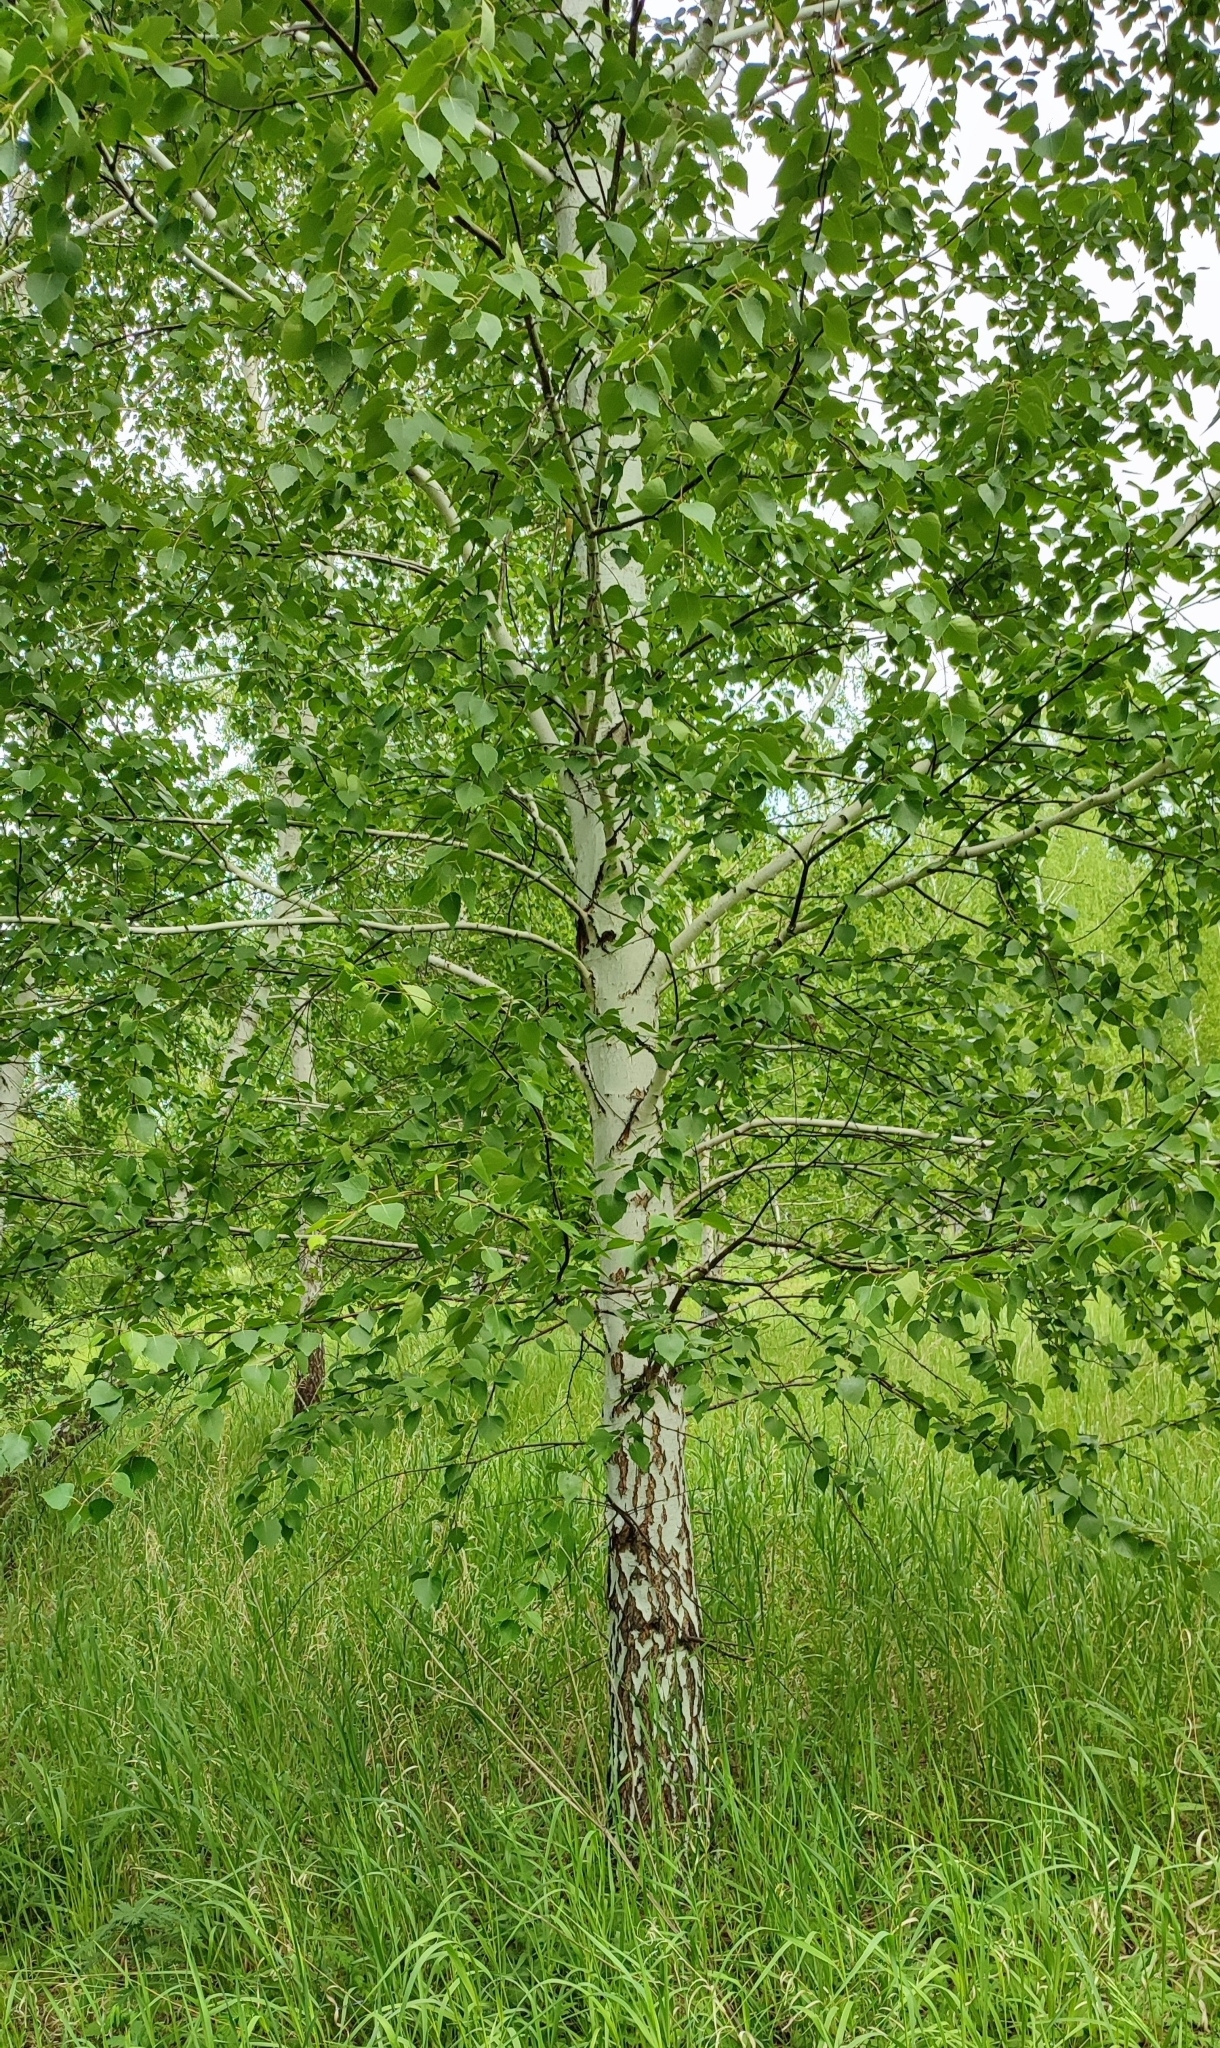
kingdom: Plantae
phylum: Tracheophyta
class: Magnoliopsida
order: Fagales
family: Betulaceae
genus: Betula
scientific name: Betula pendula
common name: Silver birch
